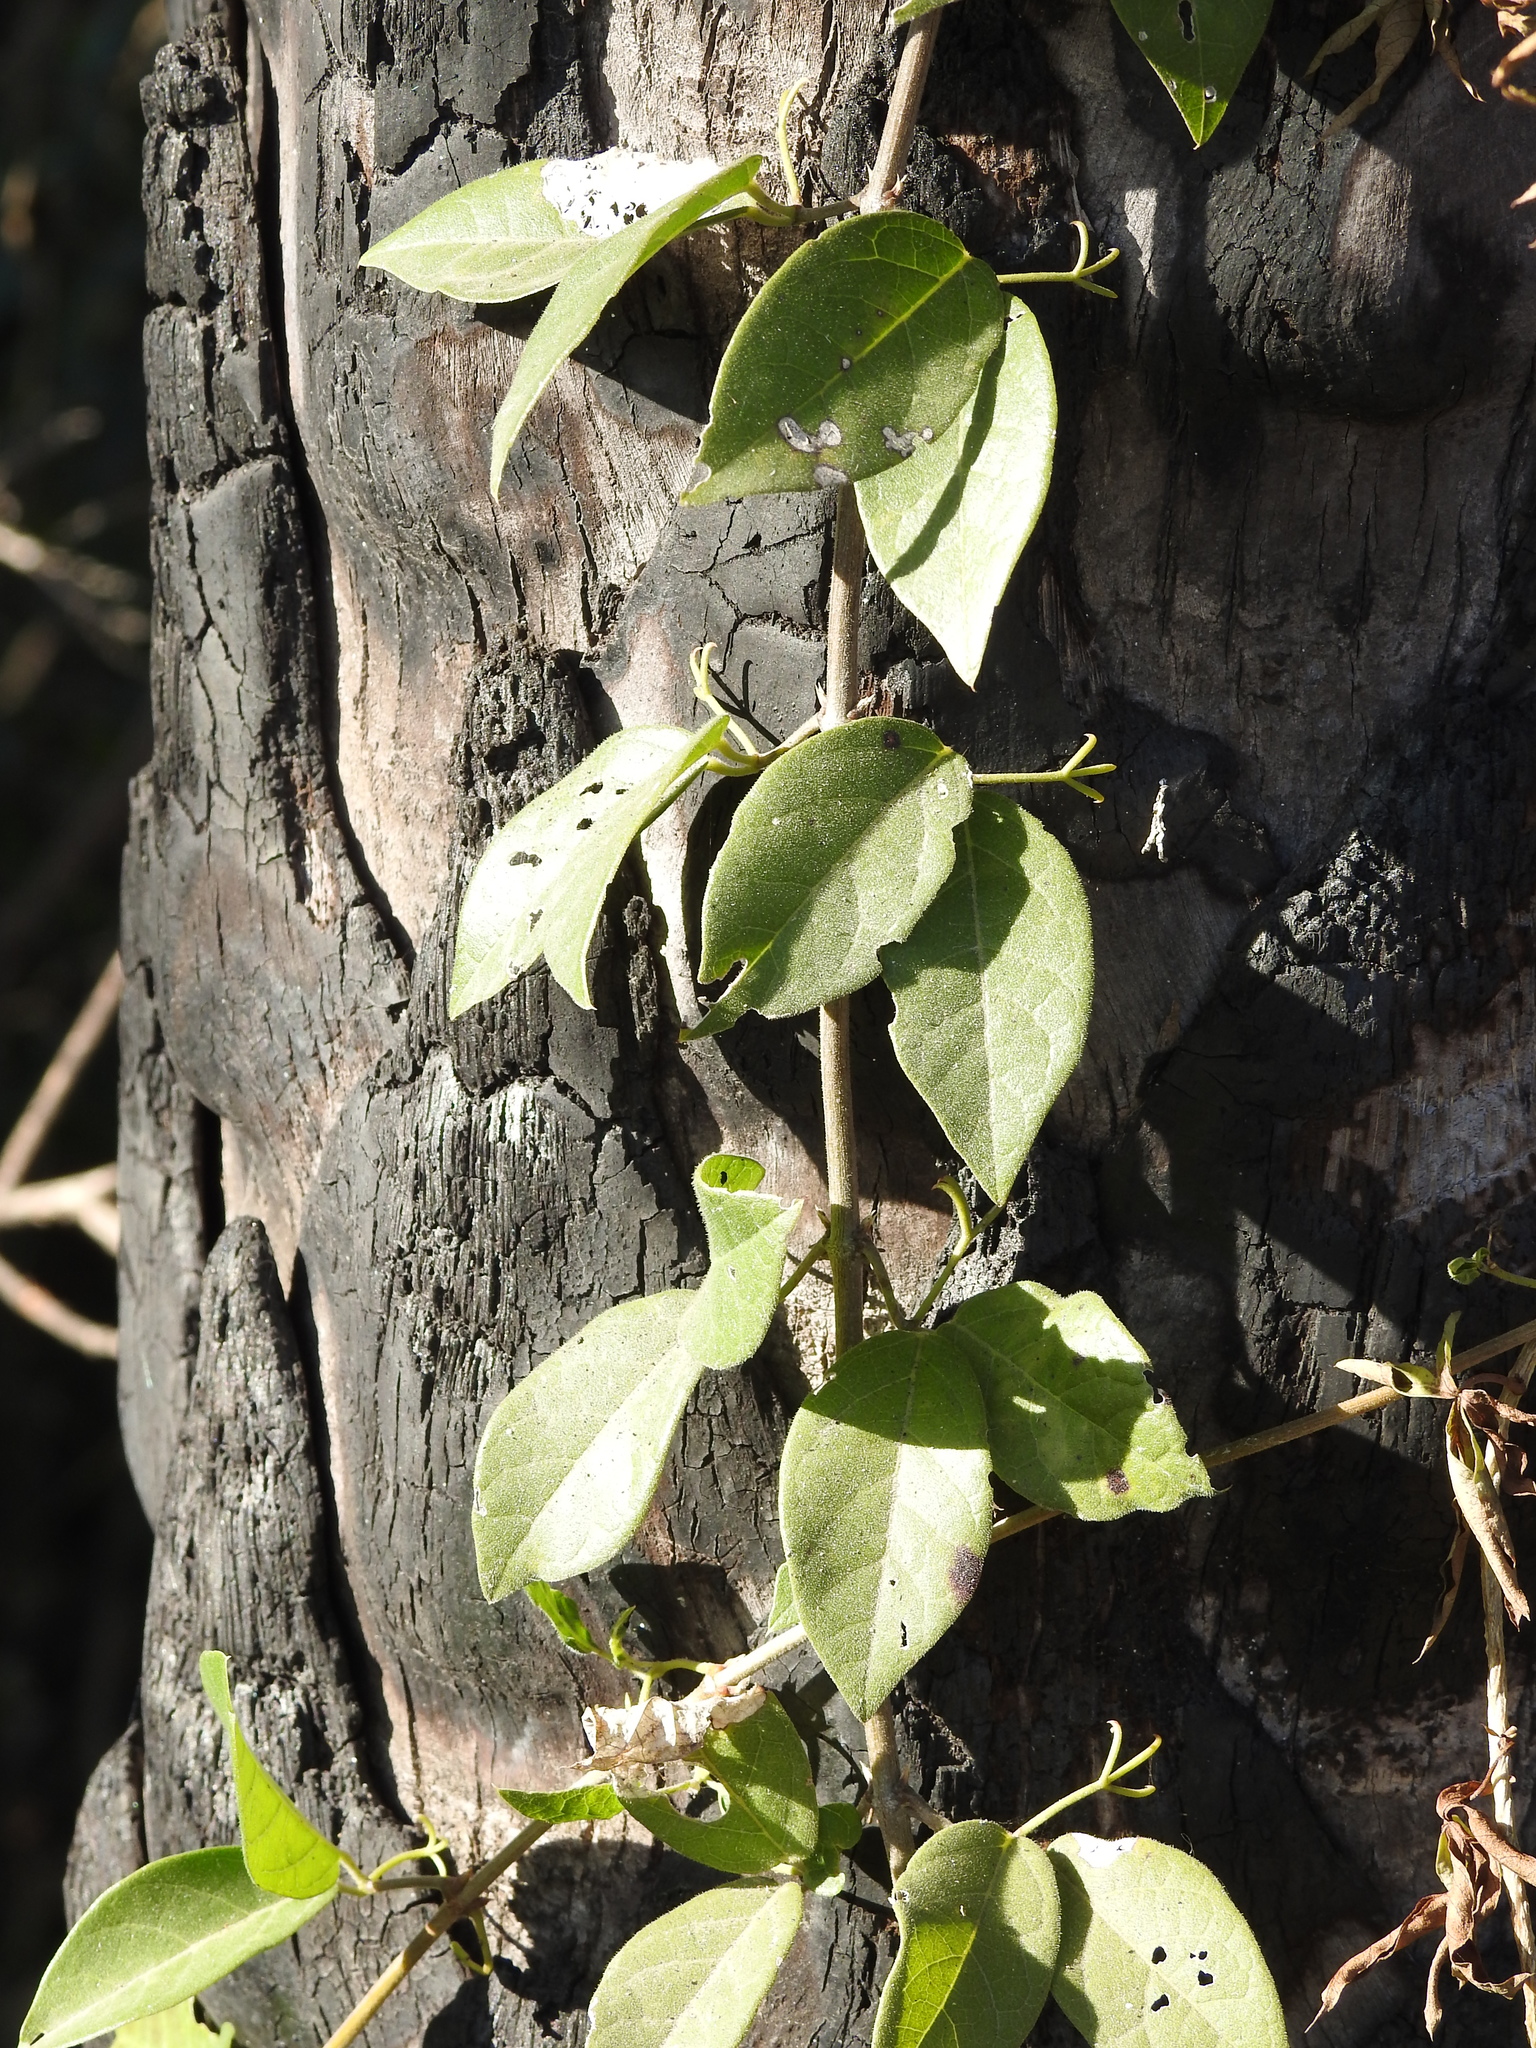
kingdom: Plantae
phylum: Tracheophyta
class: Magnoliopsida
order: Lamiales
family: Bignoniaceae
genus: Dolichandra
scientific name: Dolichandra unguis-cati
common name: Catclaw vine
